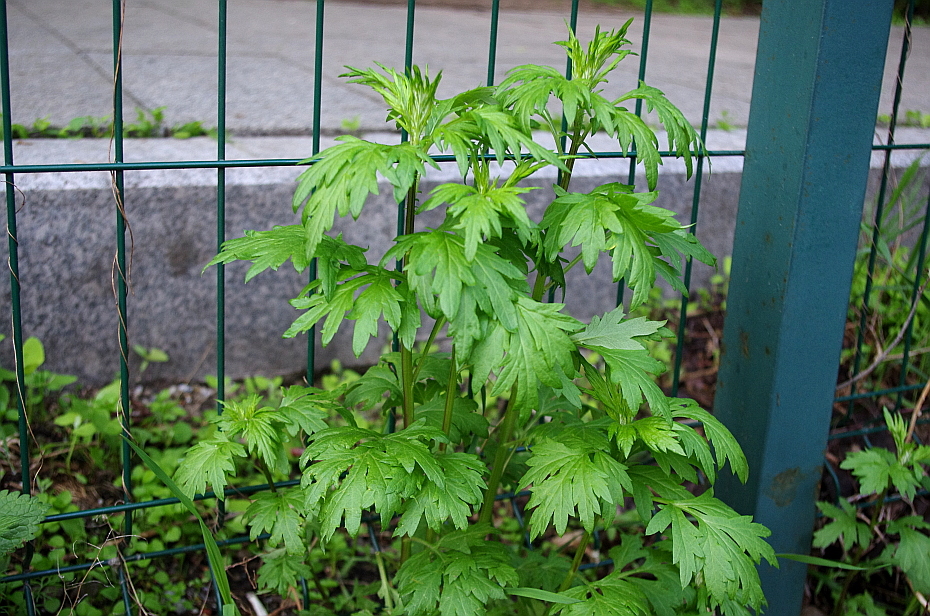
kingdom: Plantae
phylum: Tracheophyta
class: Magnoliopsida
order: Asterales
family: Asteraceae
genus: Artemisia
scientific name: Artemisia vulgaris
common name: Mugwort
